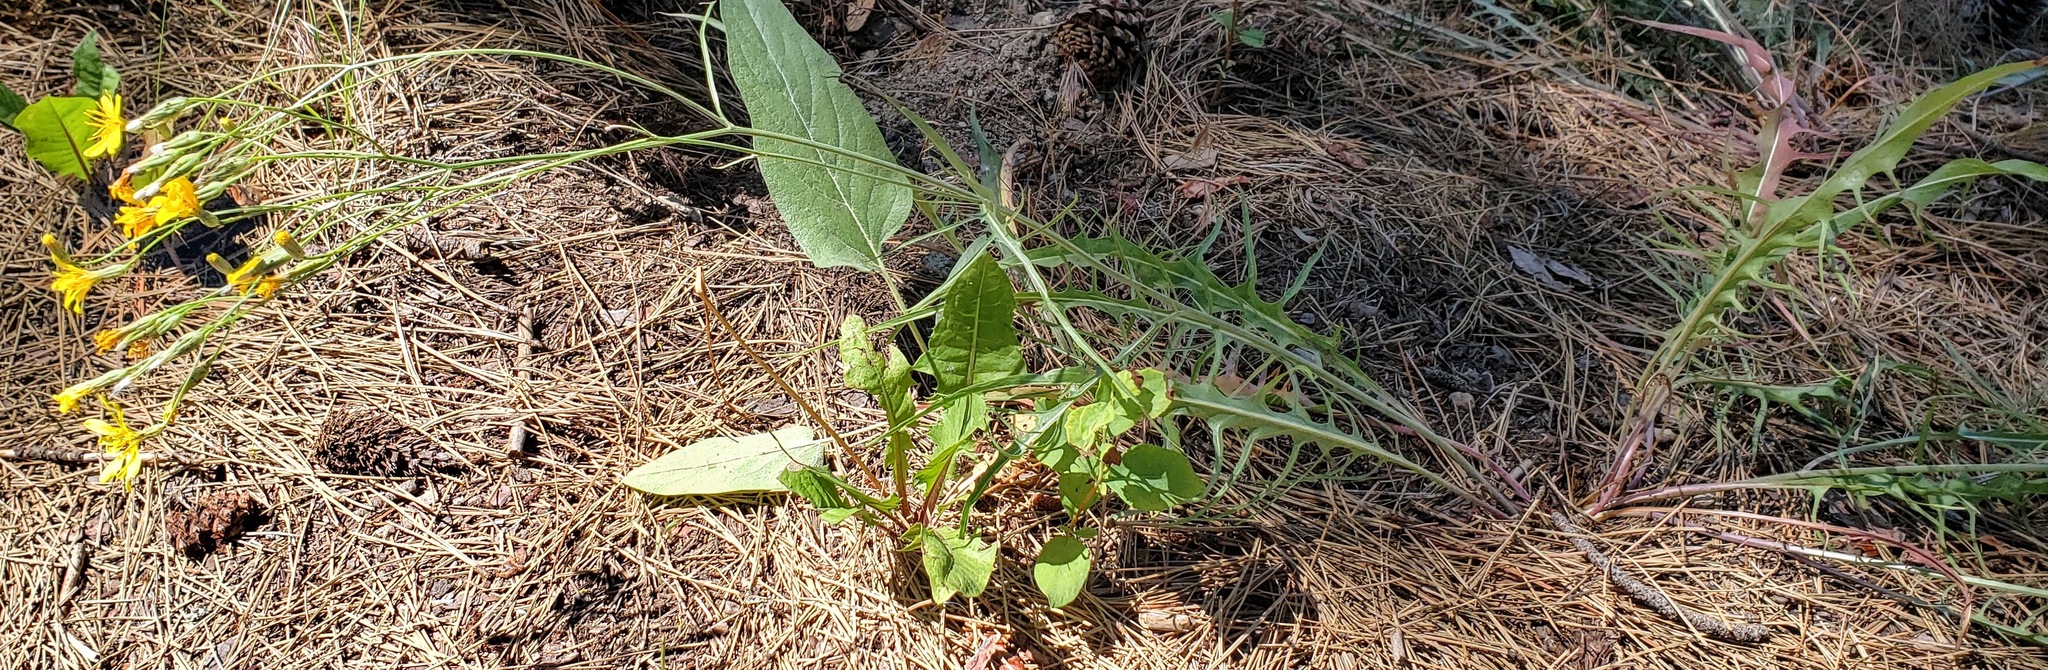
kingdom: Plantae
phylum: Tracheophyta
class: Magnoliopsida
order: Asterales
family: Asteraceae
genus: Crepis
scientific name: Crepis atribarba
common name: Dark hawk's-beard
